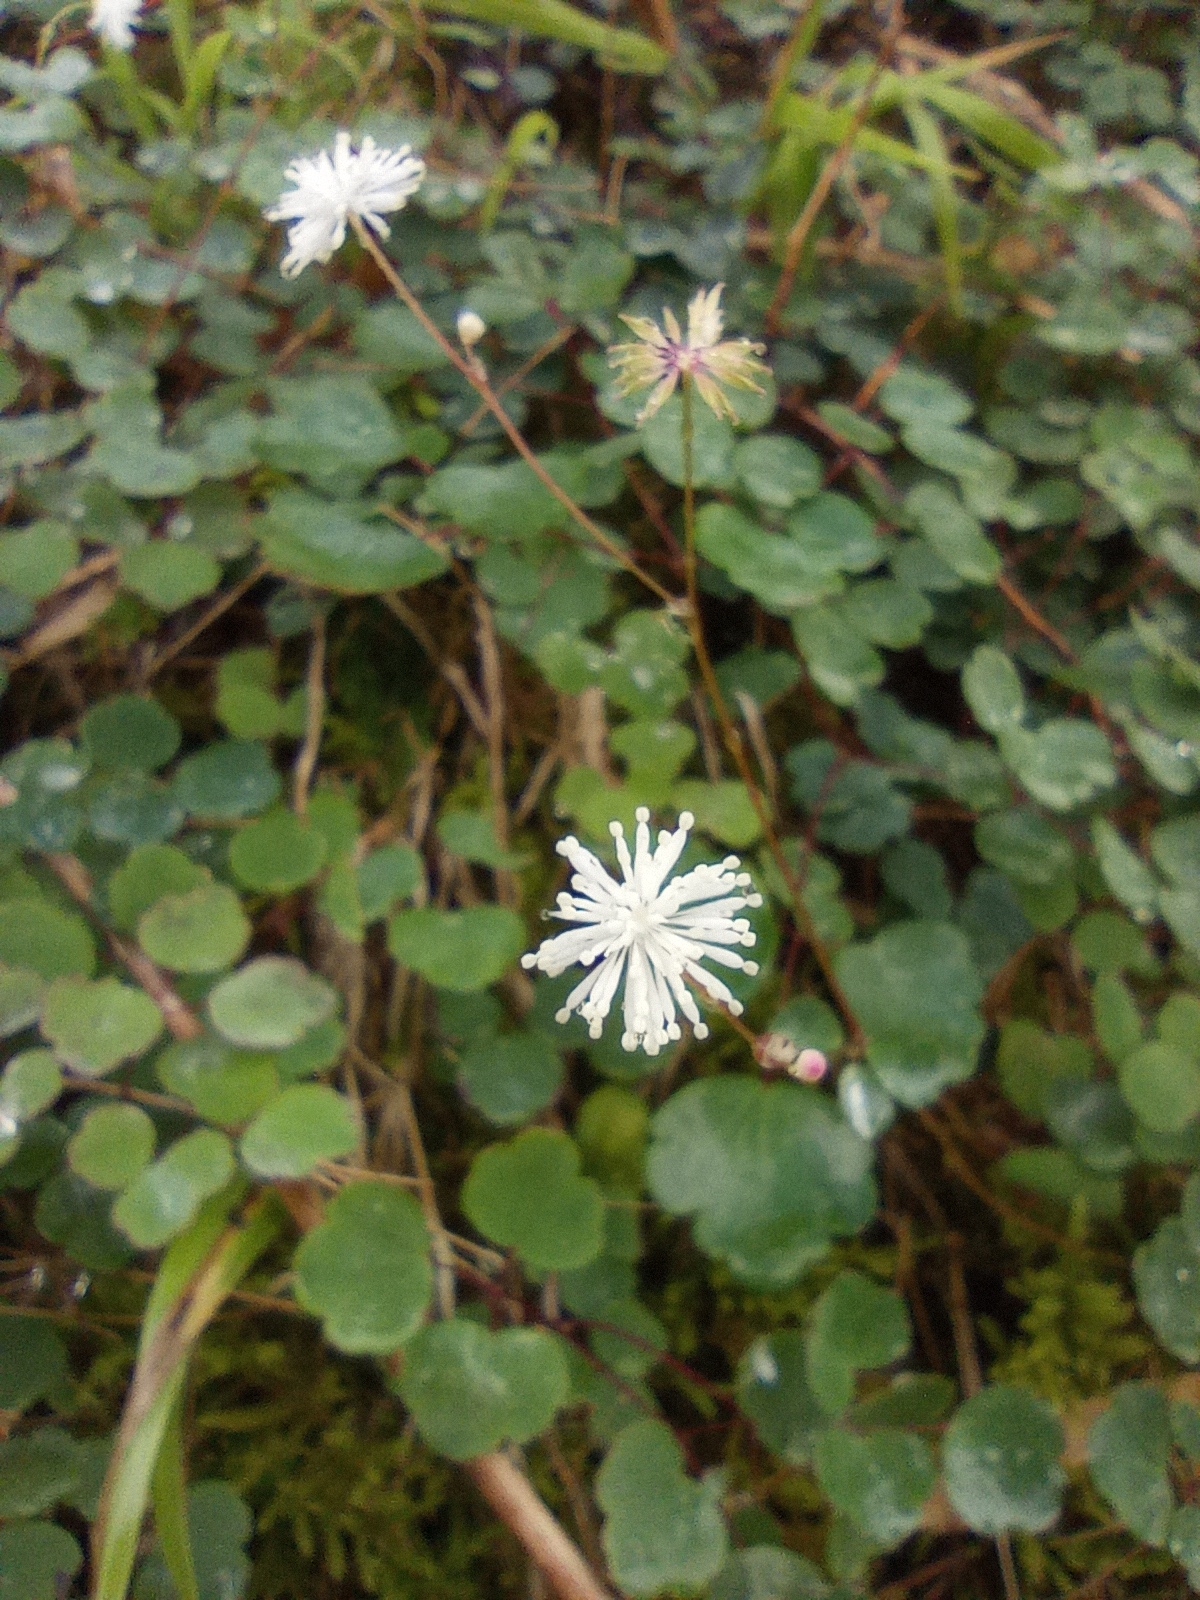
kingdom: Plantae
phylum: Tracheophyta
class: Magnoliopsida
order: Ranunculales
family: Ranunculaceae
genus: Thalictrum
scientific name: Thalictrum urbaini
